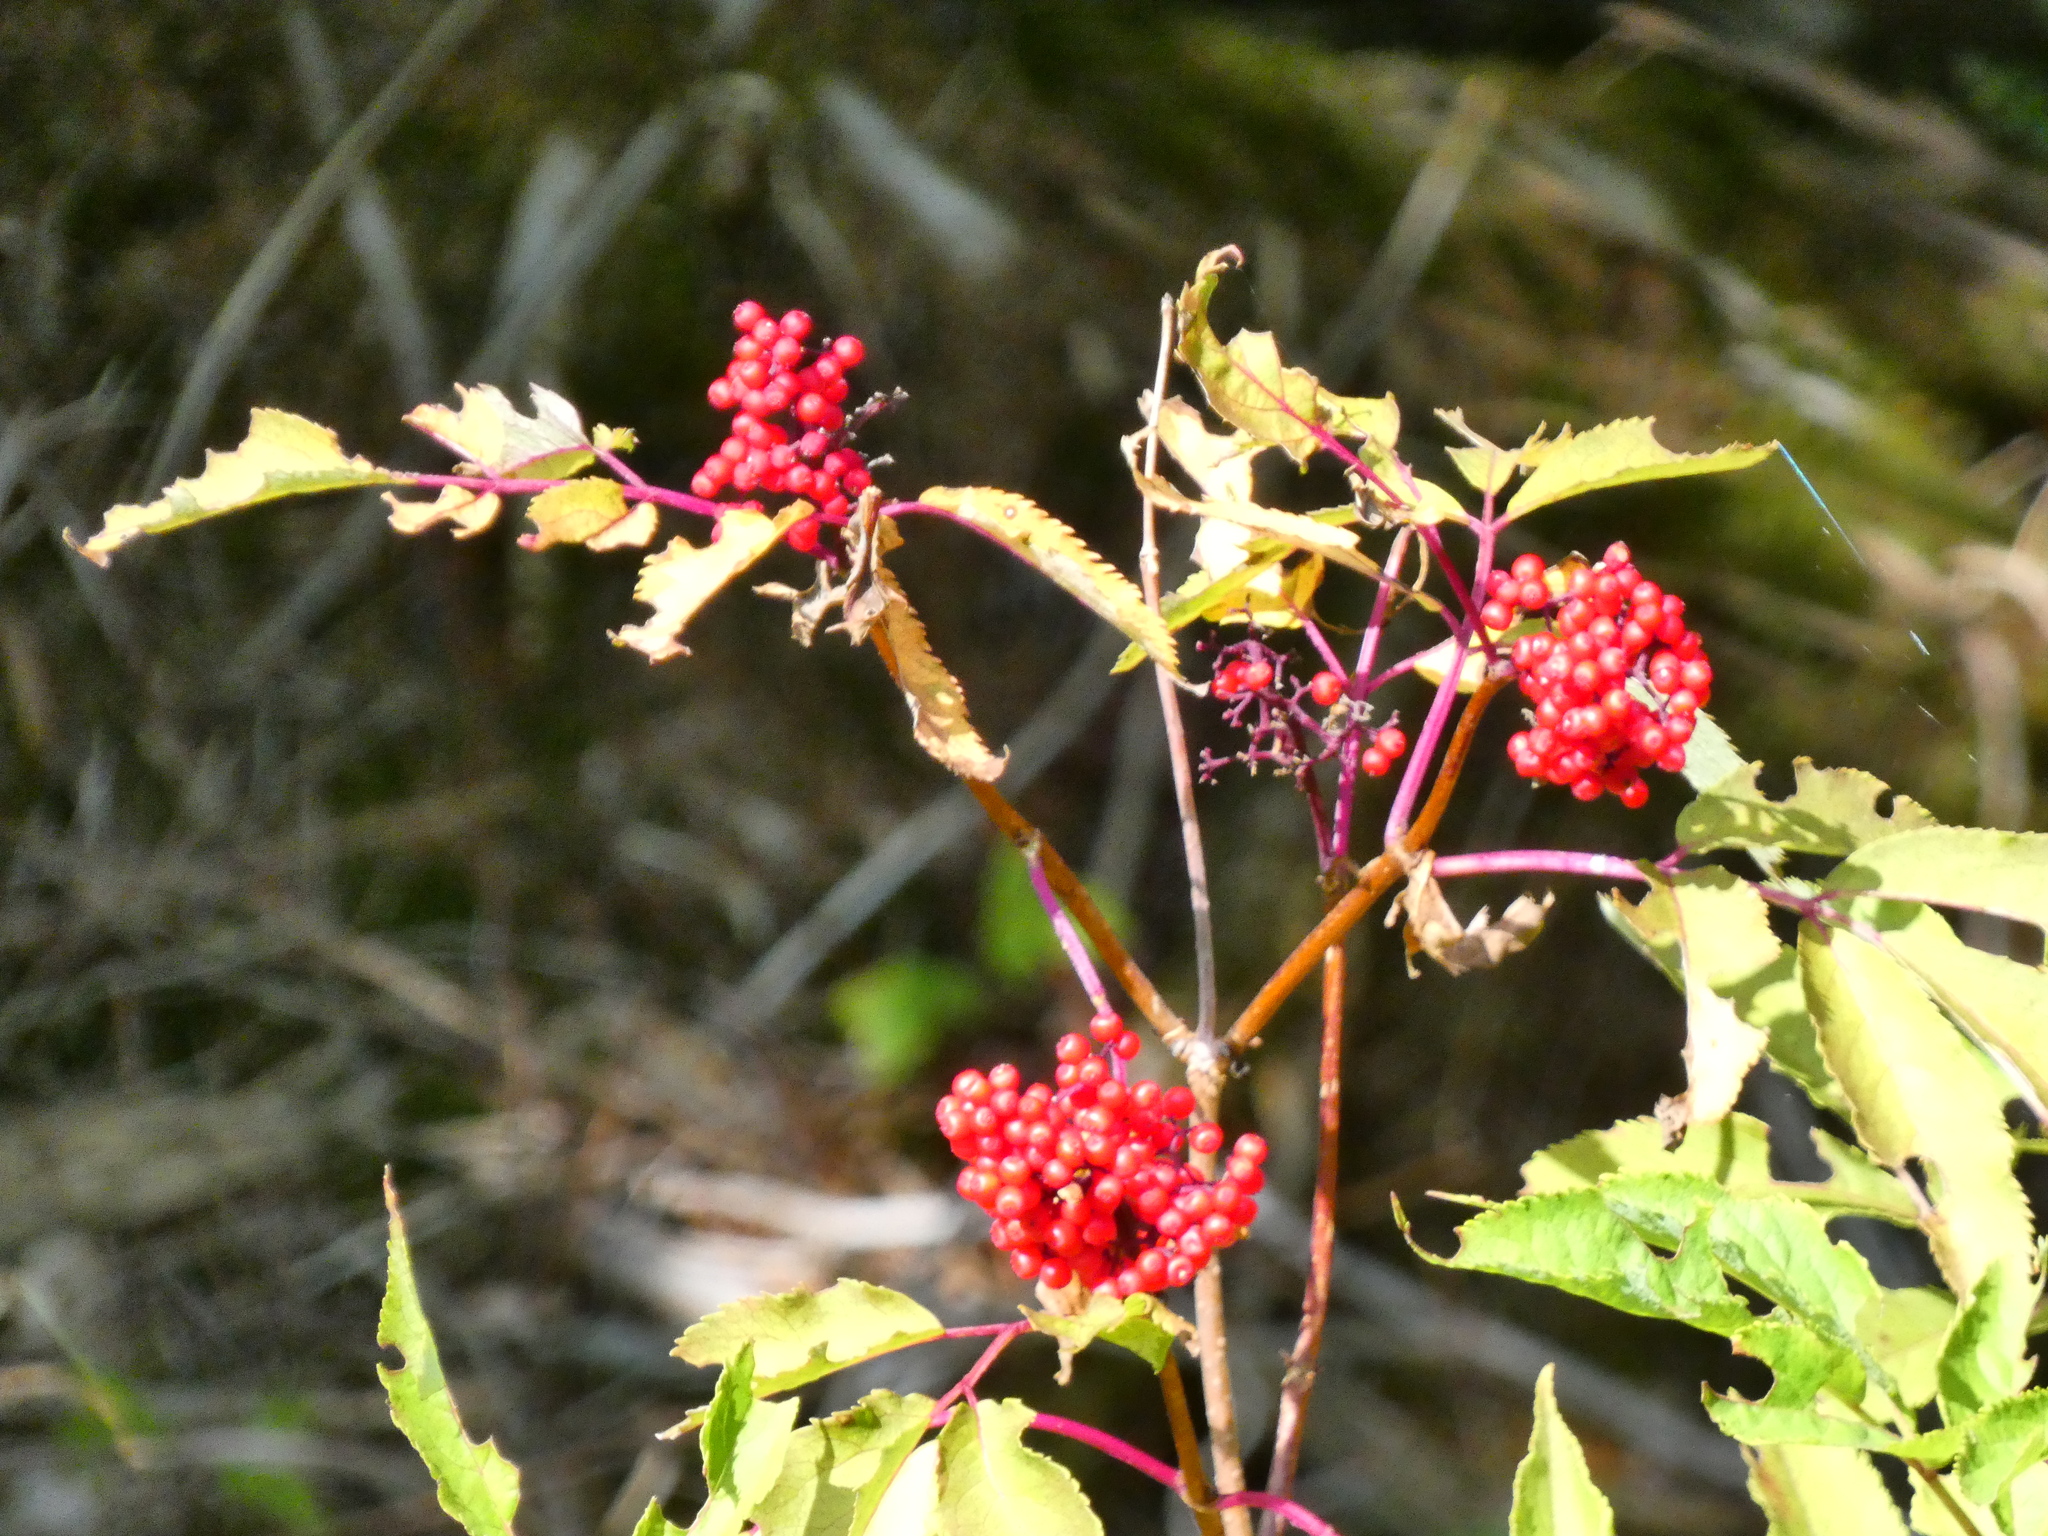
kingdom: Plantae
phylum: Tracheophyta
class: Magnoliopsida
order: Dipsacales
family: Viburnaceae
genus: Sambucus
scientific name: Sambucus racemosa
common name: Red-berried elder
